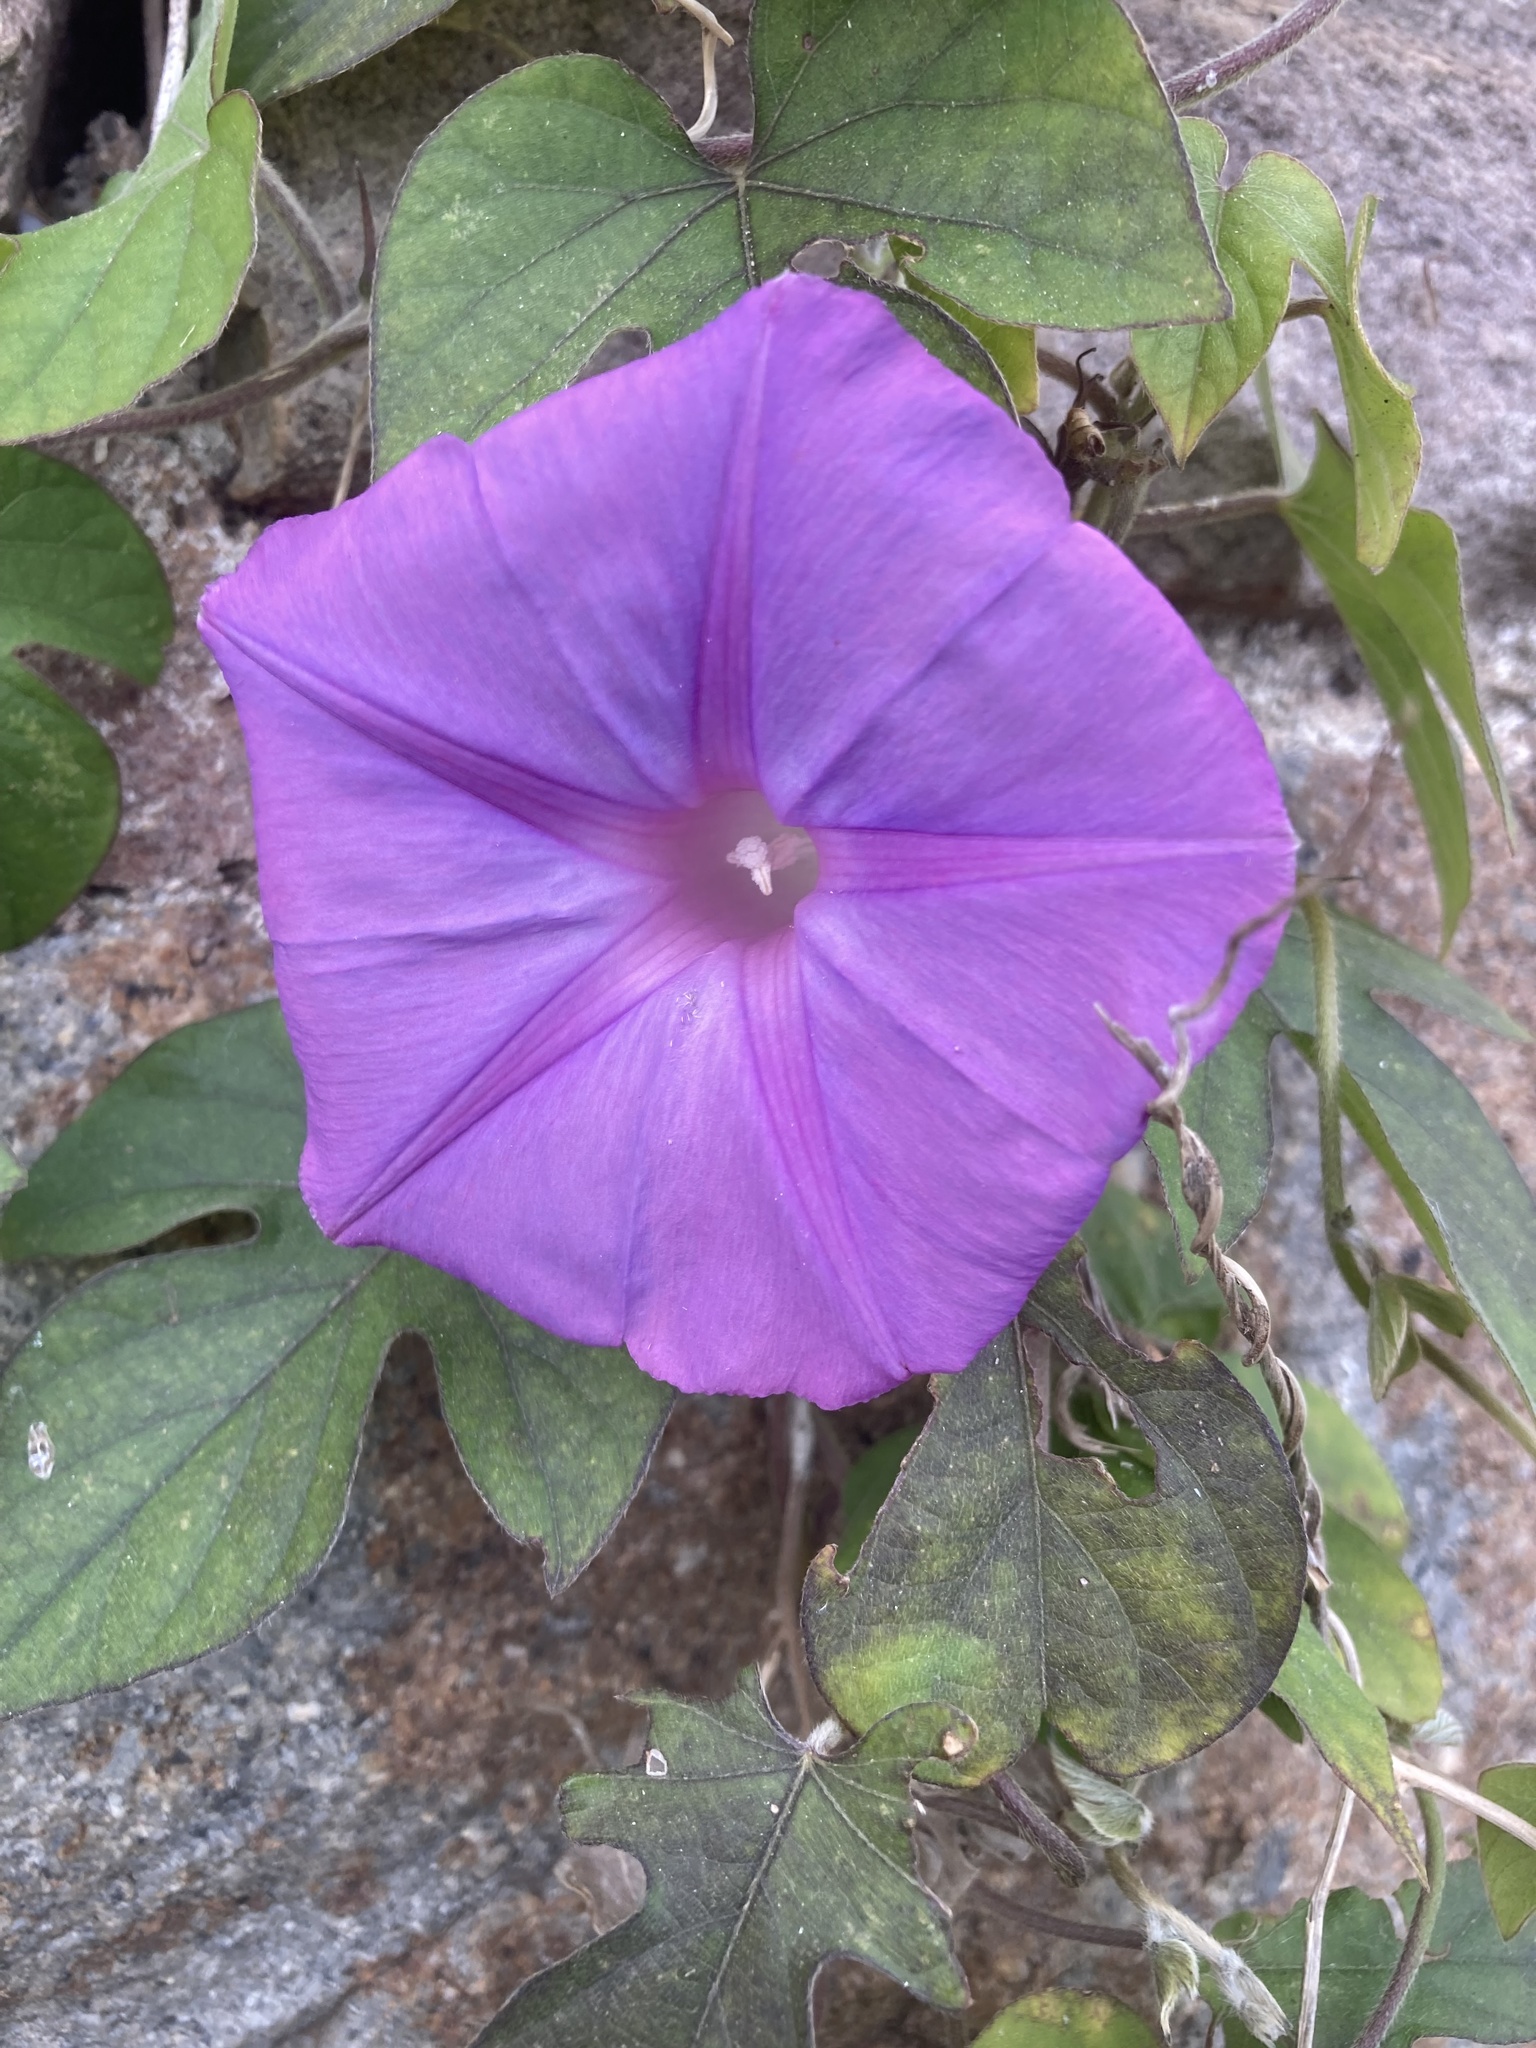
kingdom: Plantae
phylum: Tracheophyta
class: Magnoliopsida
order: Solanales
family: Convolvulaceae
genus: Ipomoea
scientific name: Ipomoea indica
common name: Blue dawnflower
